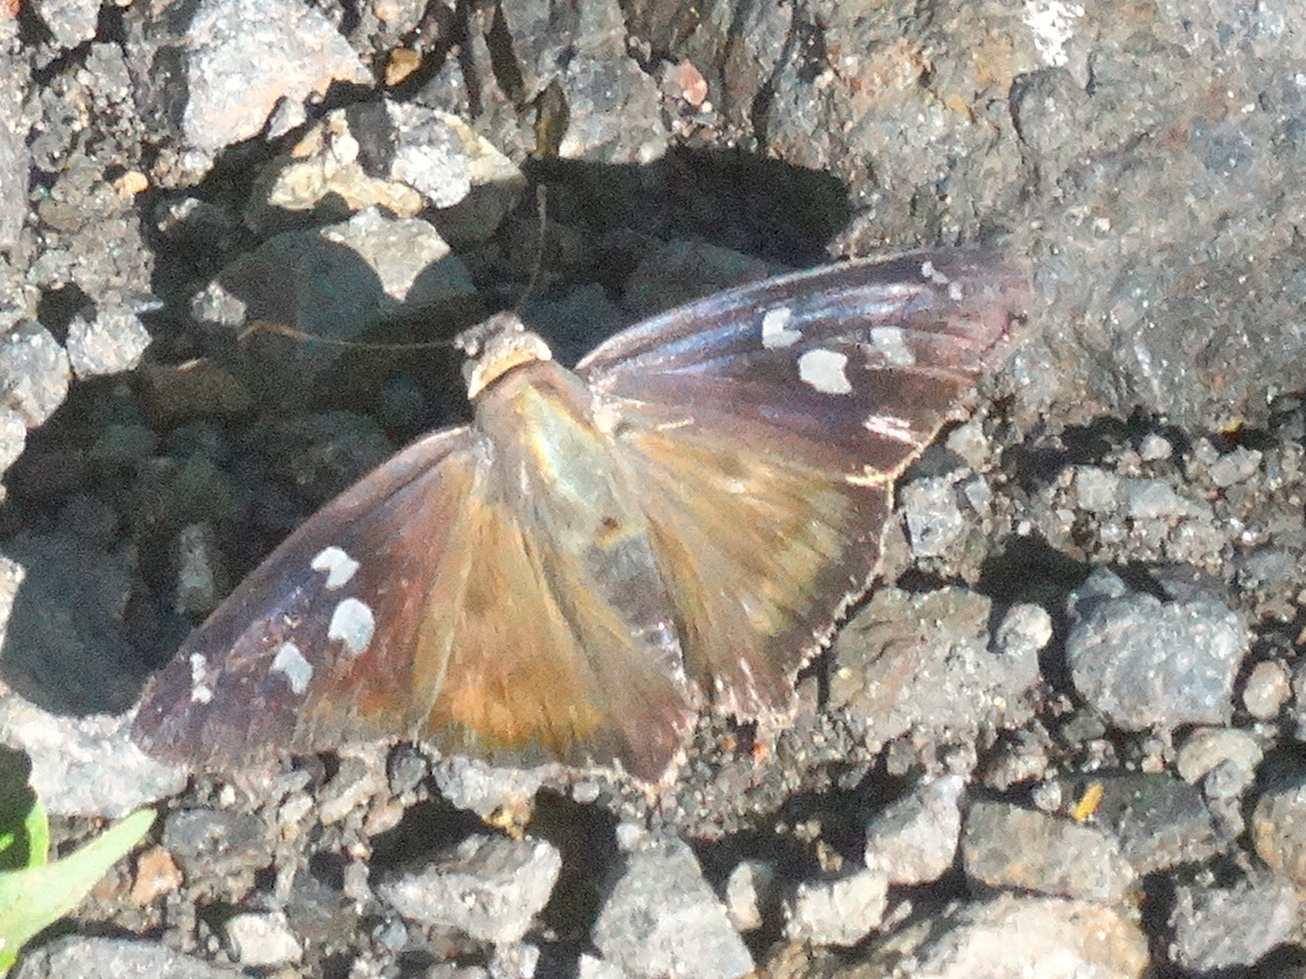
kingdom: Animalia
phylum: Arthropoda
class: Insecta
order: Lepidoptera
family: Hesperiidae
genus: Polygonus
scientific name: Polygonus leo
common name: Hammoch skipper
